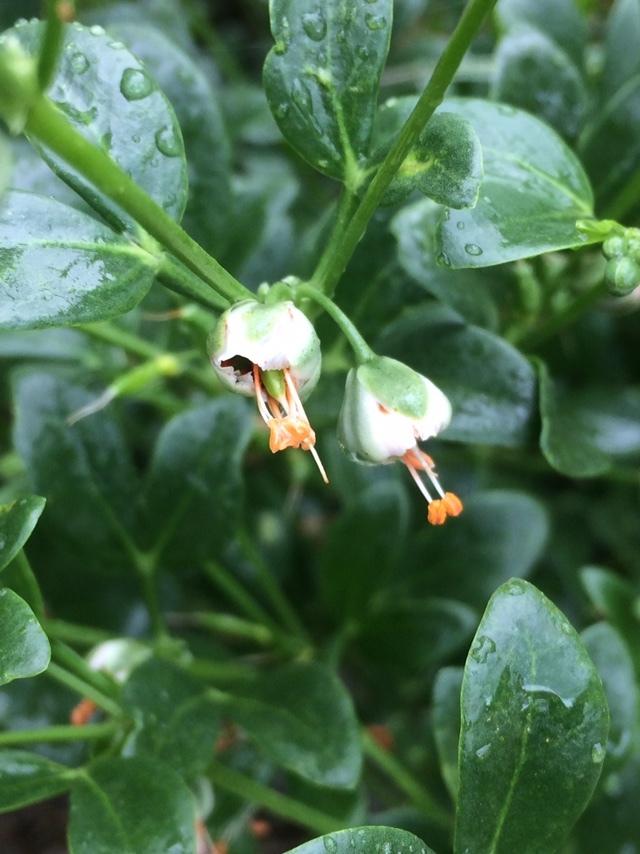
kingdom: Plantae
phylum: Tracheophyta
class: Magnoliopsida
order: Zygophyllales
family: Zygophyllaceae
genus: Zygophyllum
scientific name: Zygophyllum fabago
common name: Syrian beancaper
